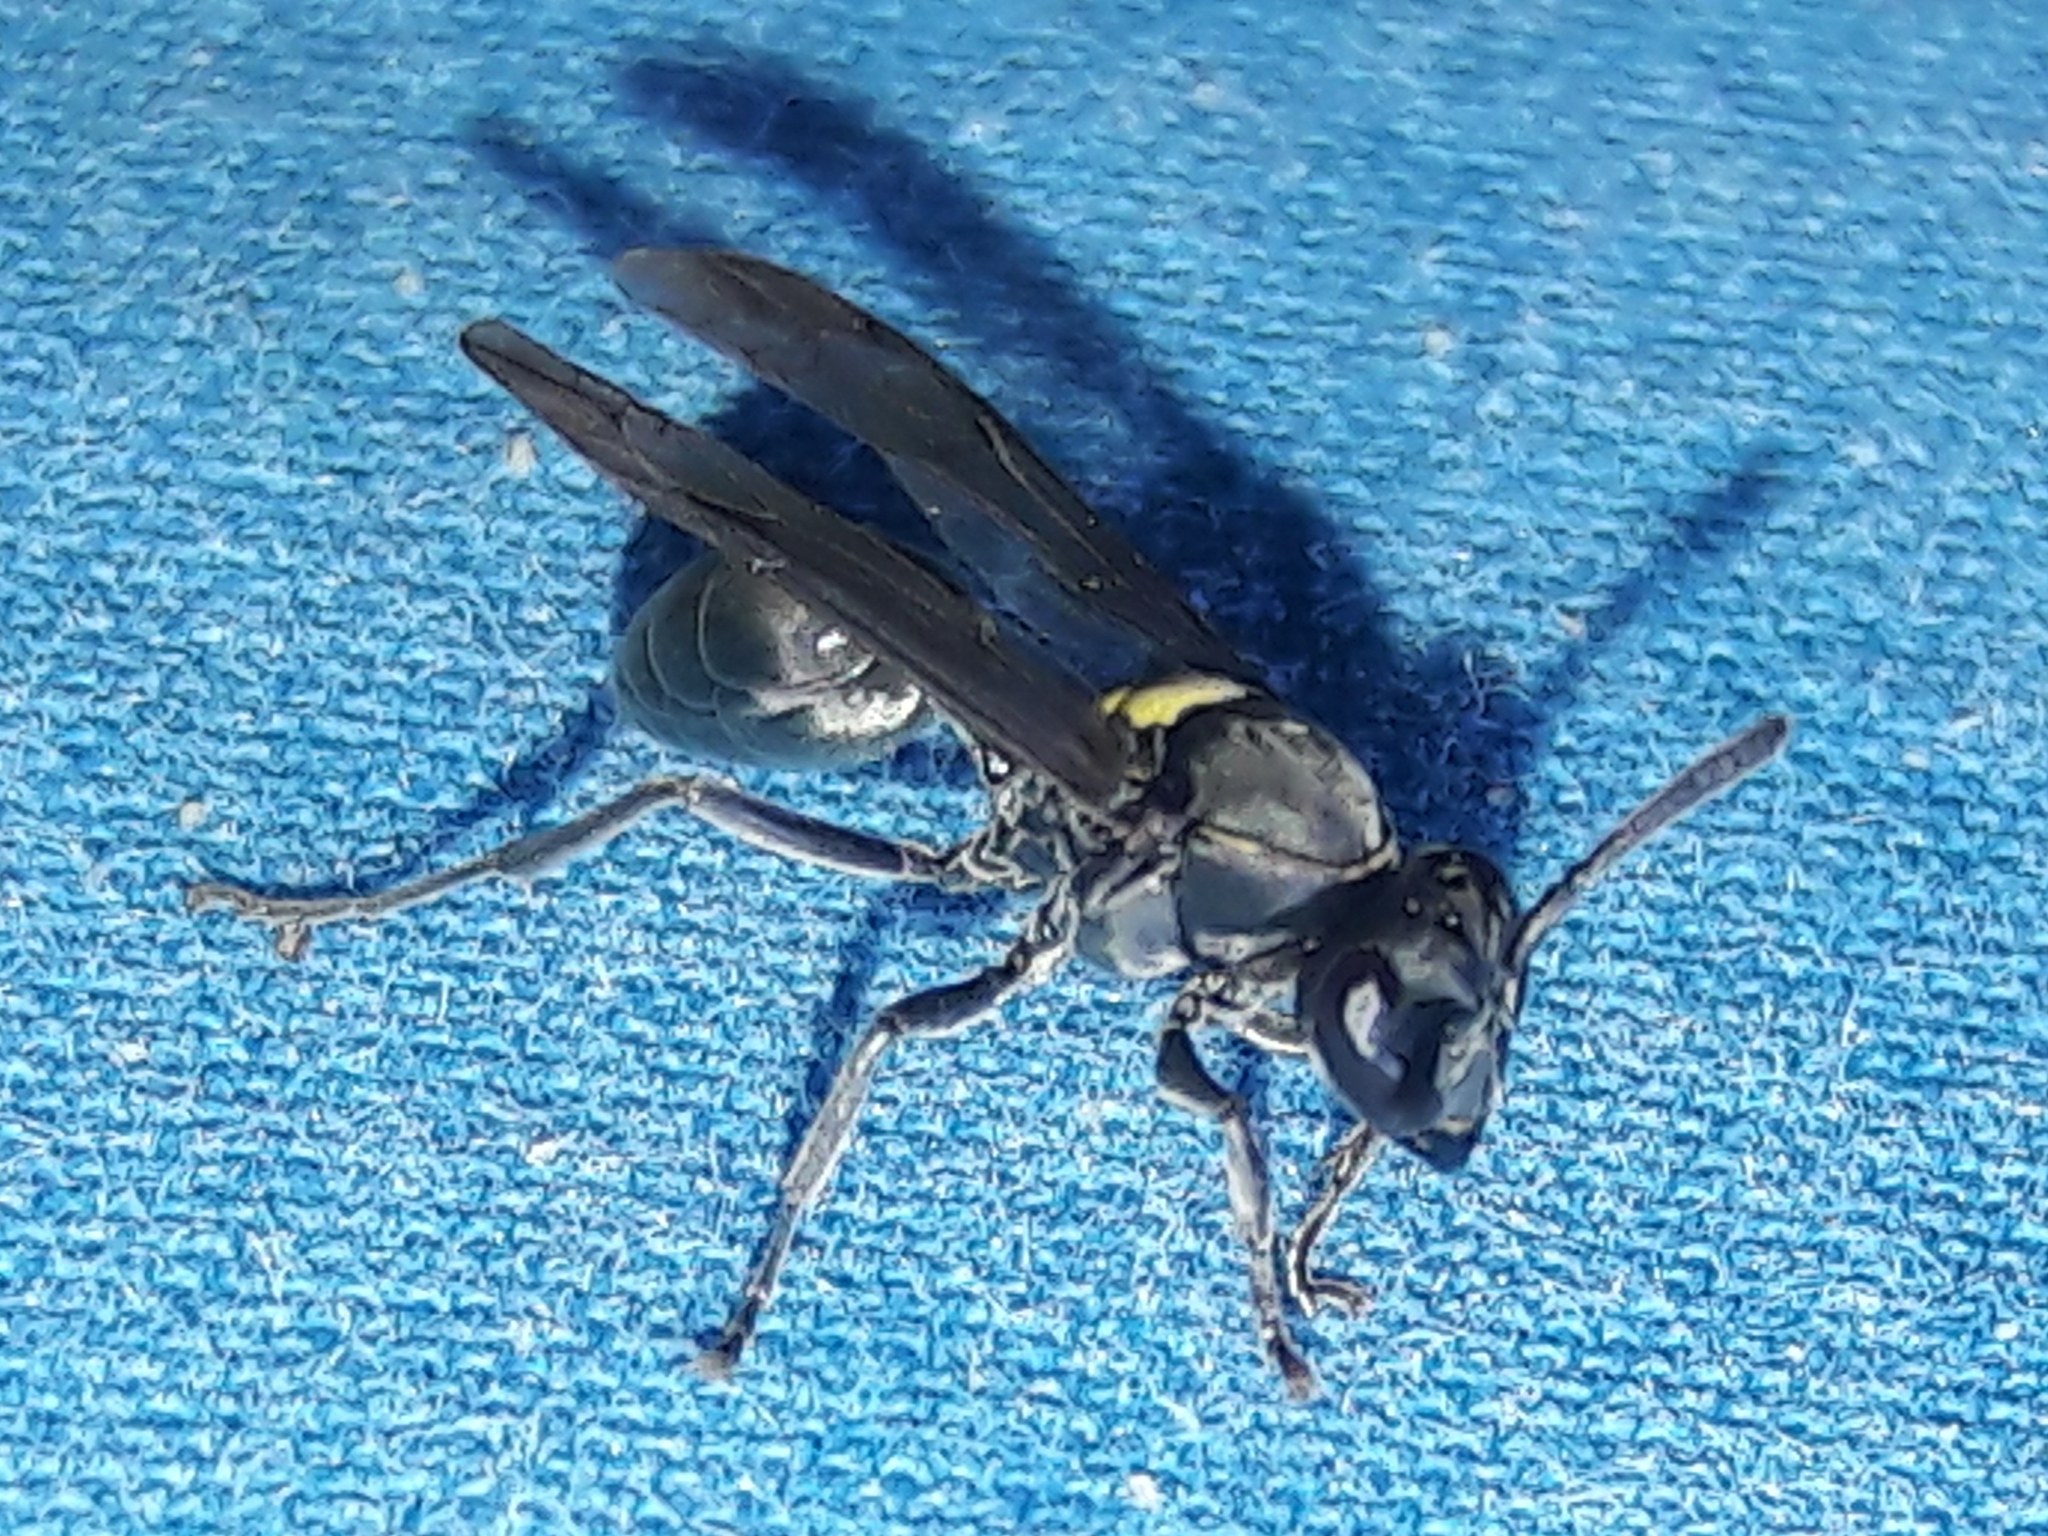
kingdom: Animalia
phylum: Arthropoda
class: Insecta
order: Hymenoptera
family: Eumenidae
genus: Polybia
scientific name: Polybia jurinei
